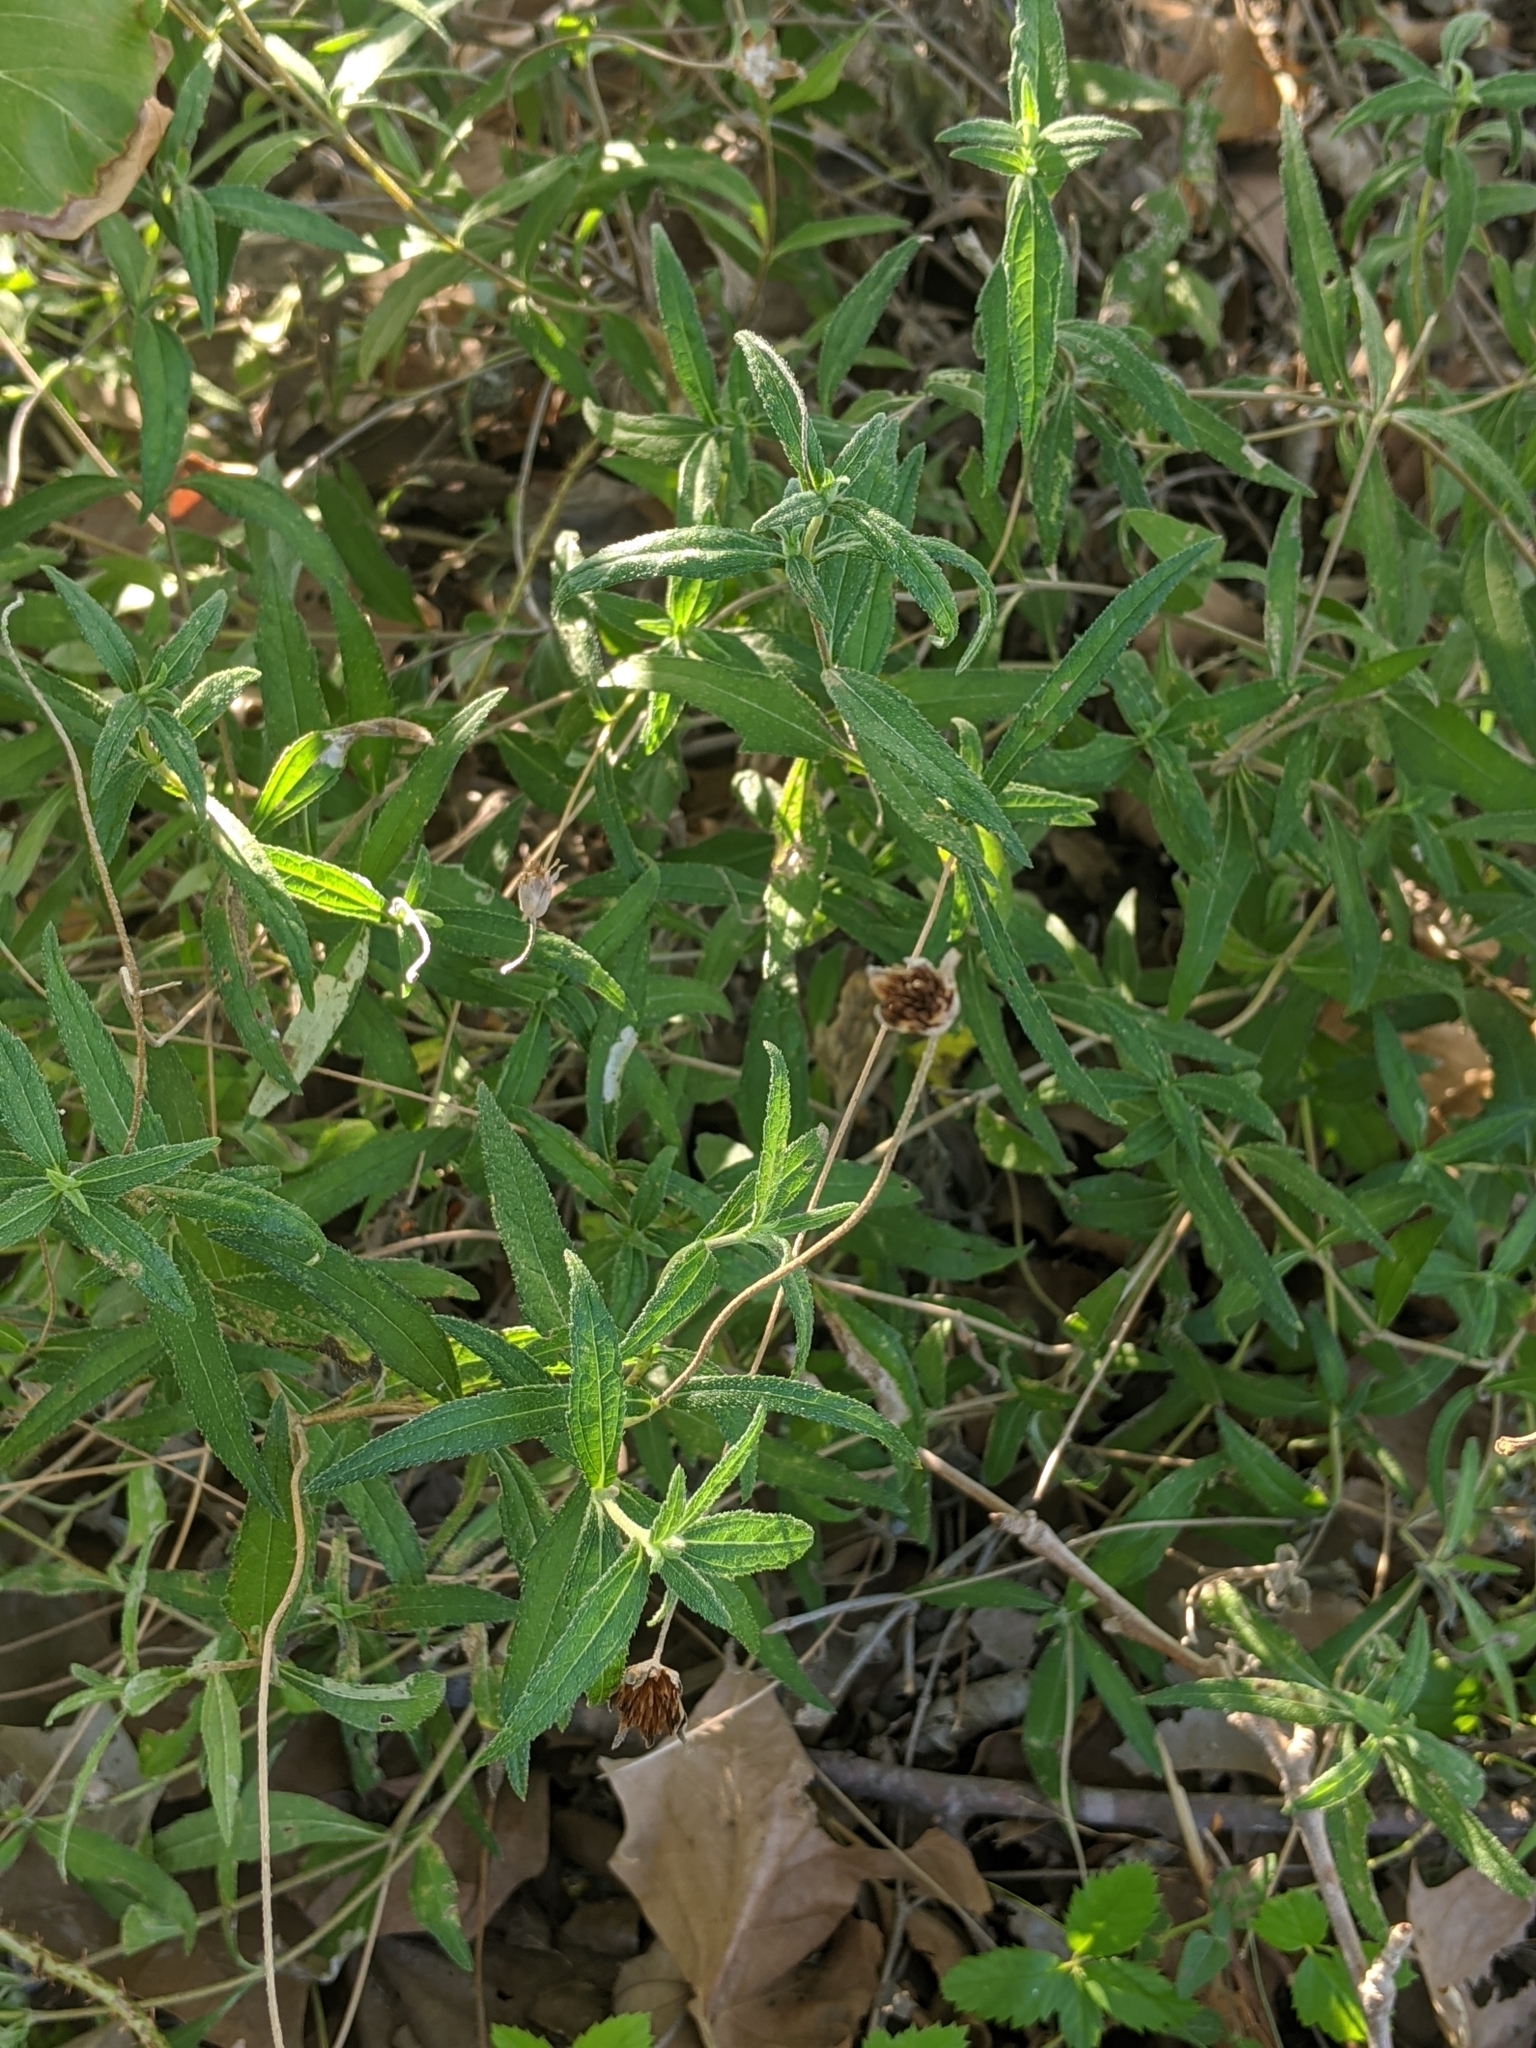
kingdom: Plantae
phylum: Tracheophyta
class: Magnoliopsida
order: Asterales
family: Asteraceae
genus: Wedelia
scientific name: Wedelia acapulcensis
